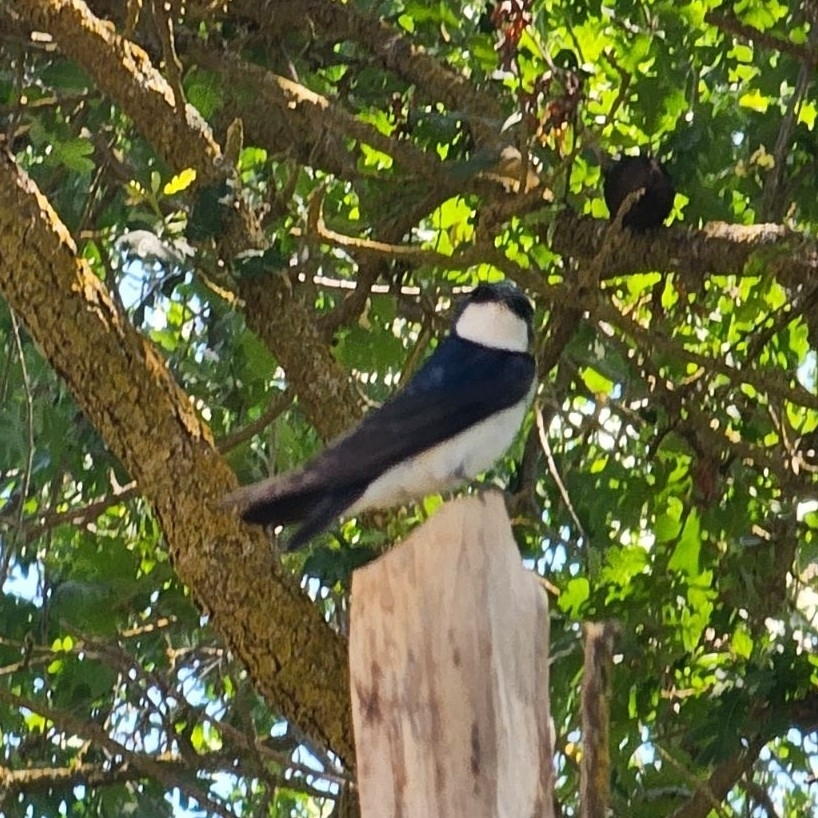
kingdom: Animalia
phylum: Chordata
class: Aves
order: Passeriformes
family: Hirundinidae
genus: Tachycineta
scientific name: Tachycineta bicolor
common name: Tree swallow
